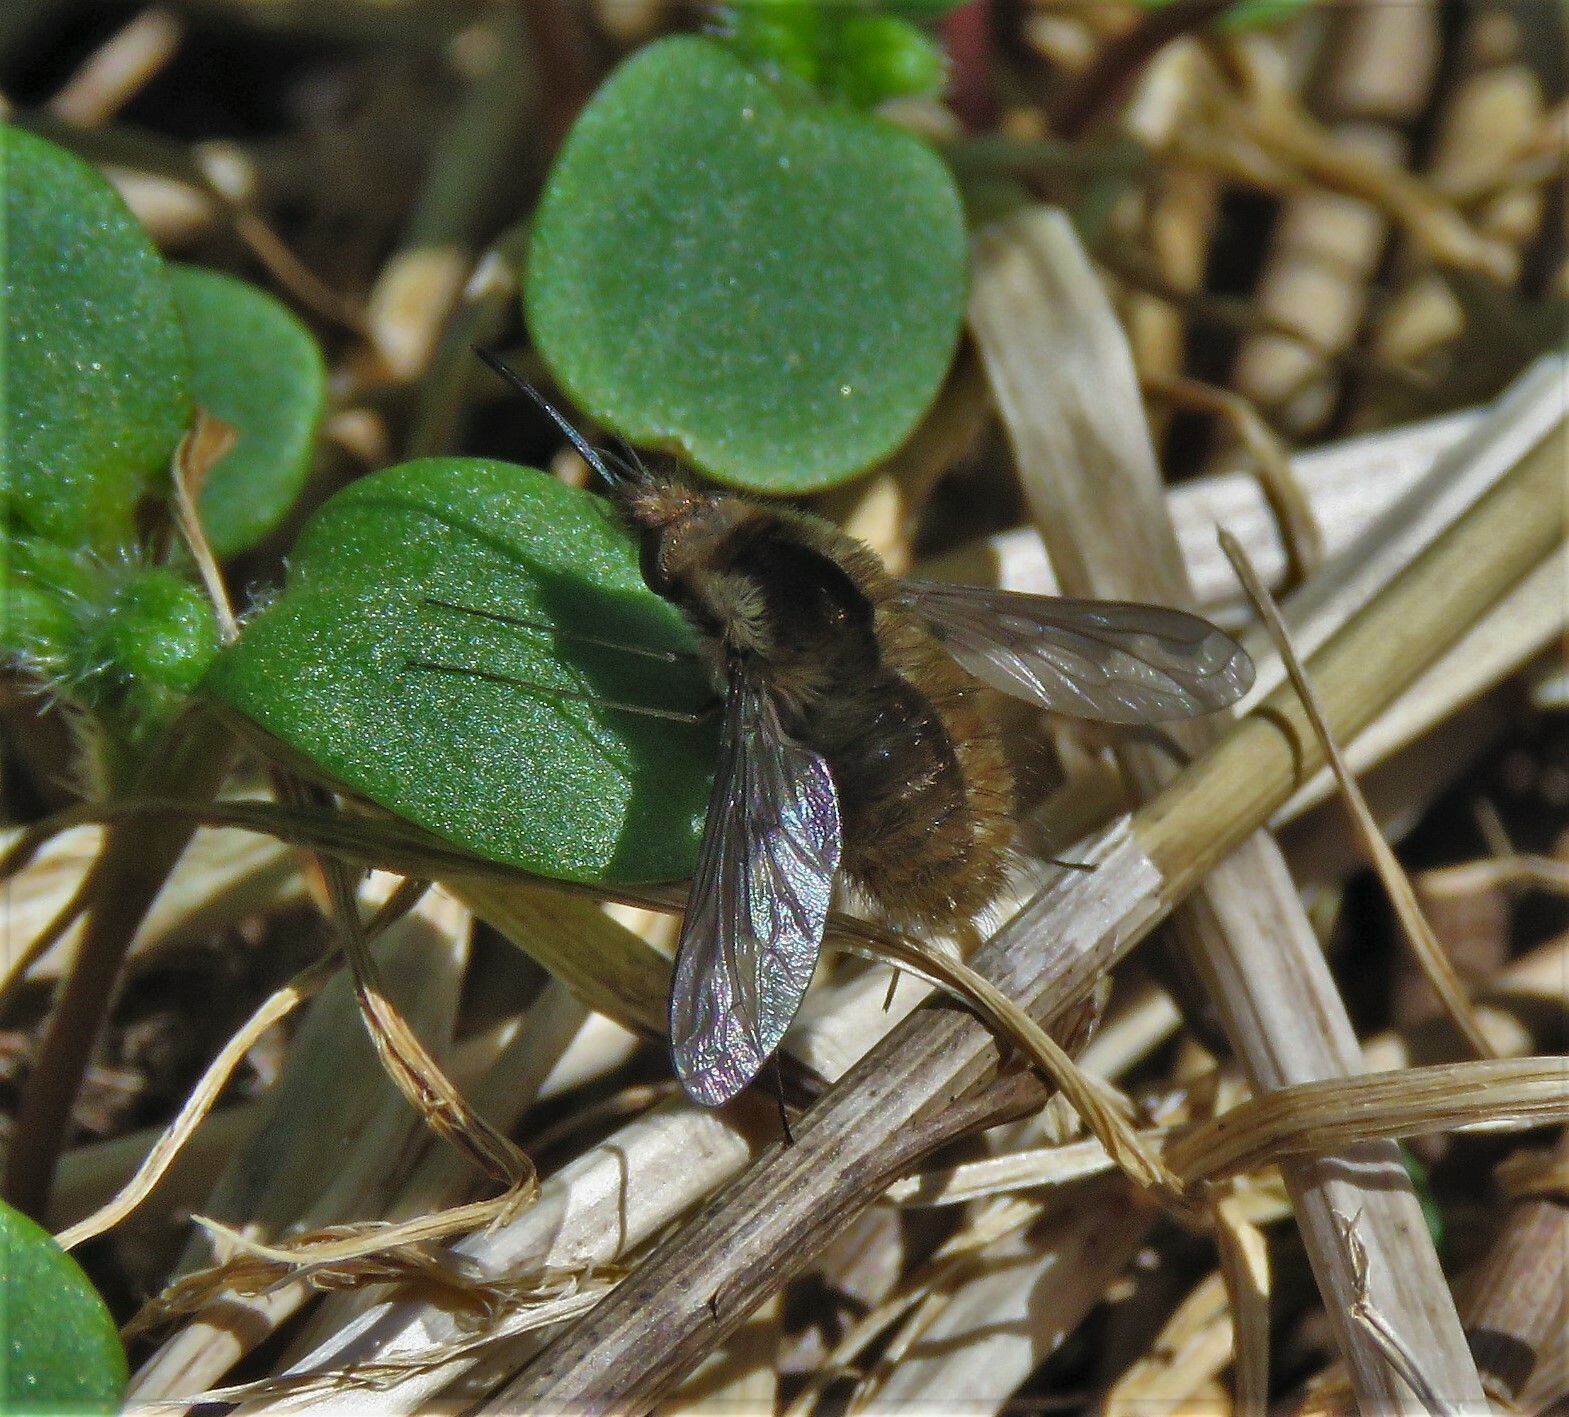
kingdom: Animalia
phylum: Arthropoda
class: Insecta
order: Diptera
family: Bombyliidae
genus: Bombylius
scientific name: Bombylius major
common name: Bee fly
